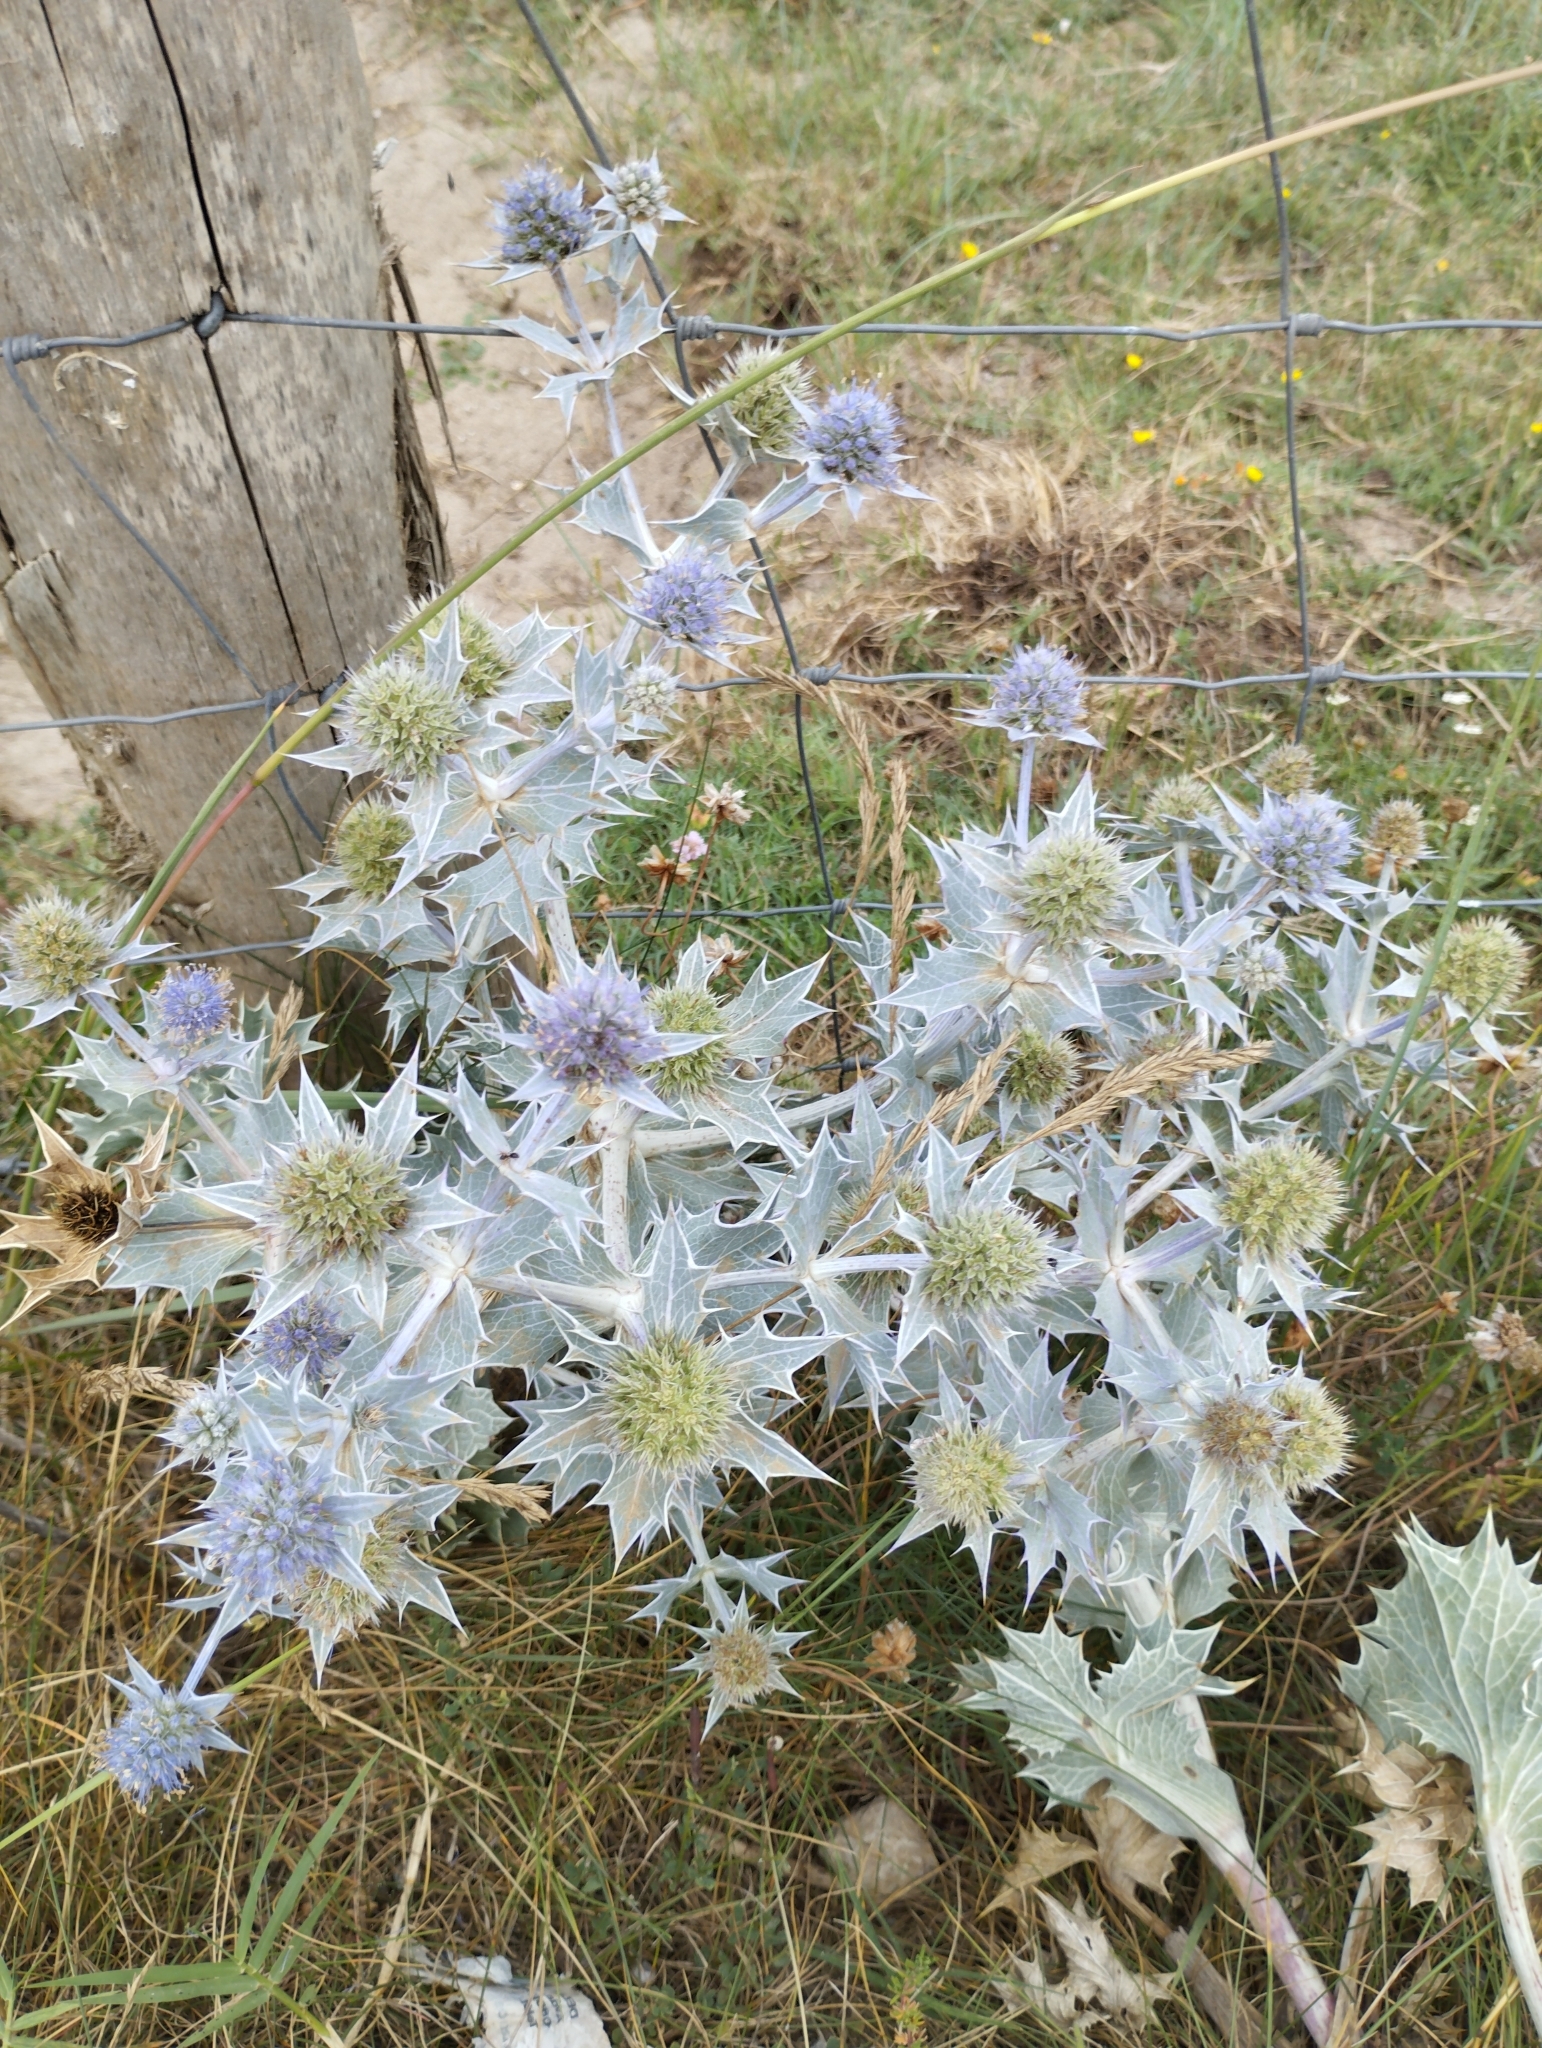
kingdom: Plantae
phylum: Tracheophyta
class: Magnoliopsida
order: Apiales
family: Apiaceae
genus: Eryngium
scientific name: Eryngium maritimum
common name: Sea-holly
